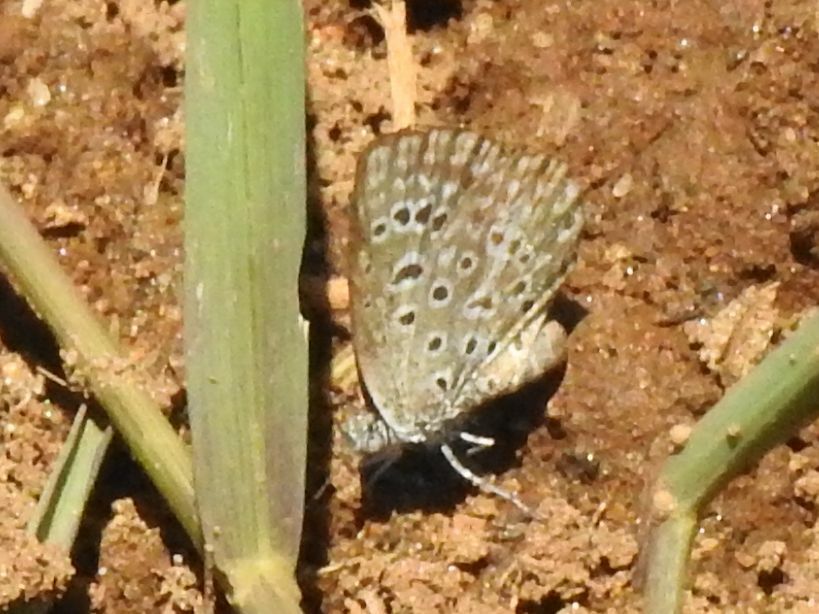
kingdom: Animalia
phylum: Arthropoda
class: Insecta
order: Lepidoptera
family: Lycaenidae
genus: Actizera
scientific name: Actizera lucida
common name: Rayed blue
